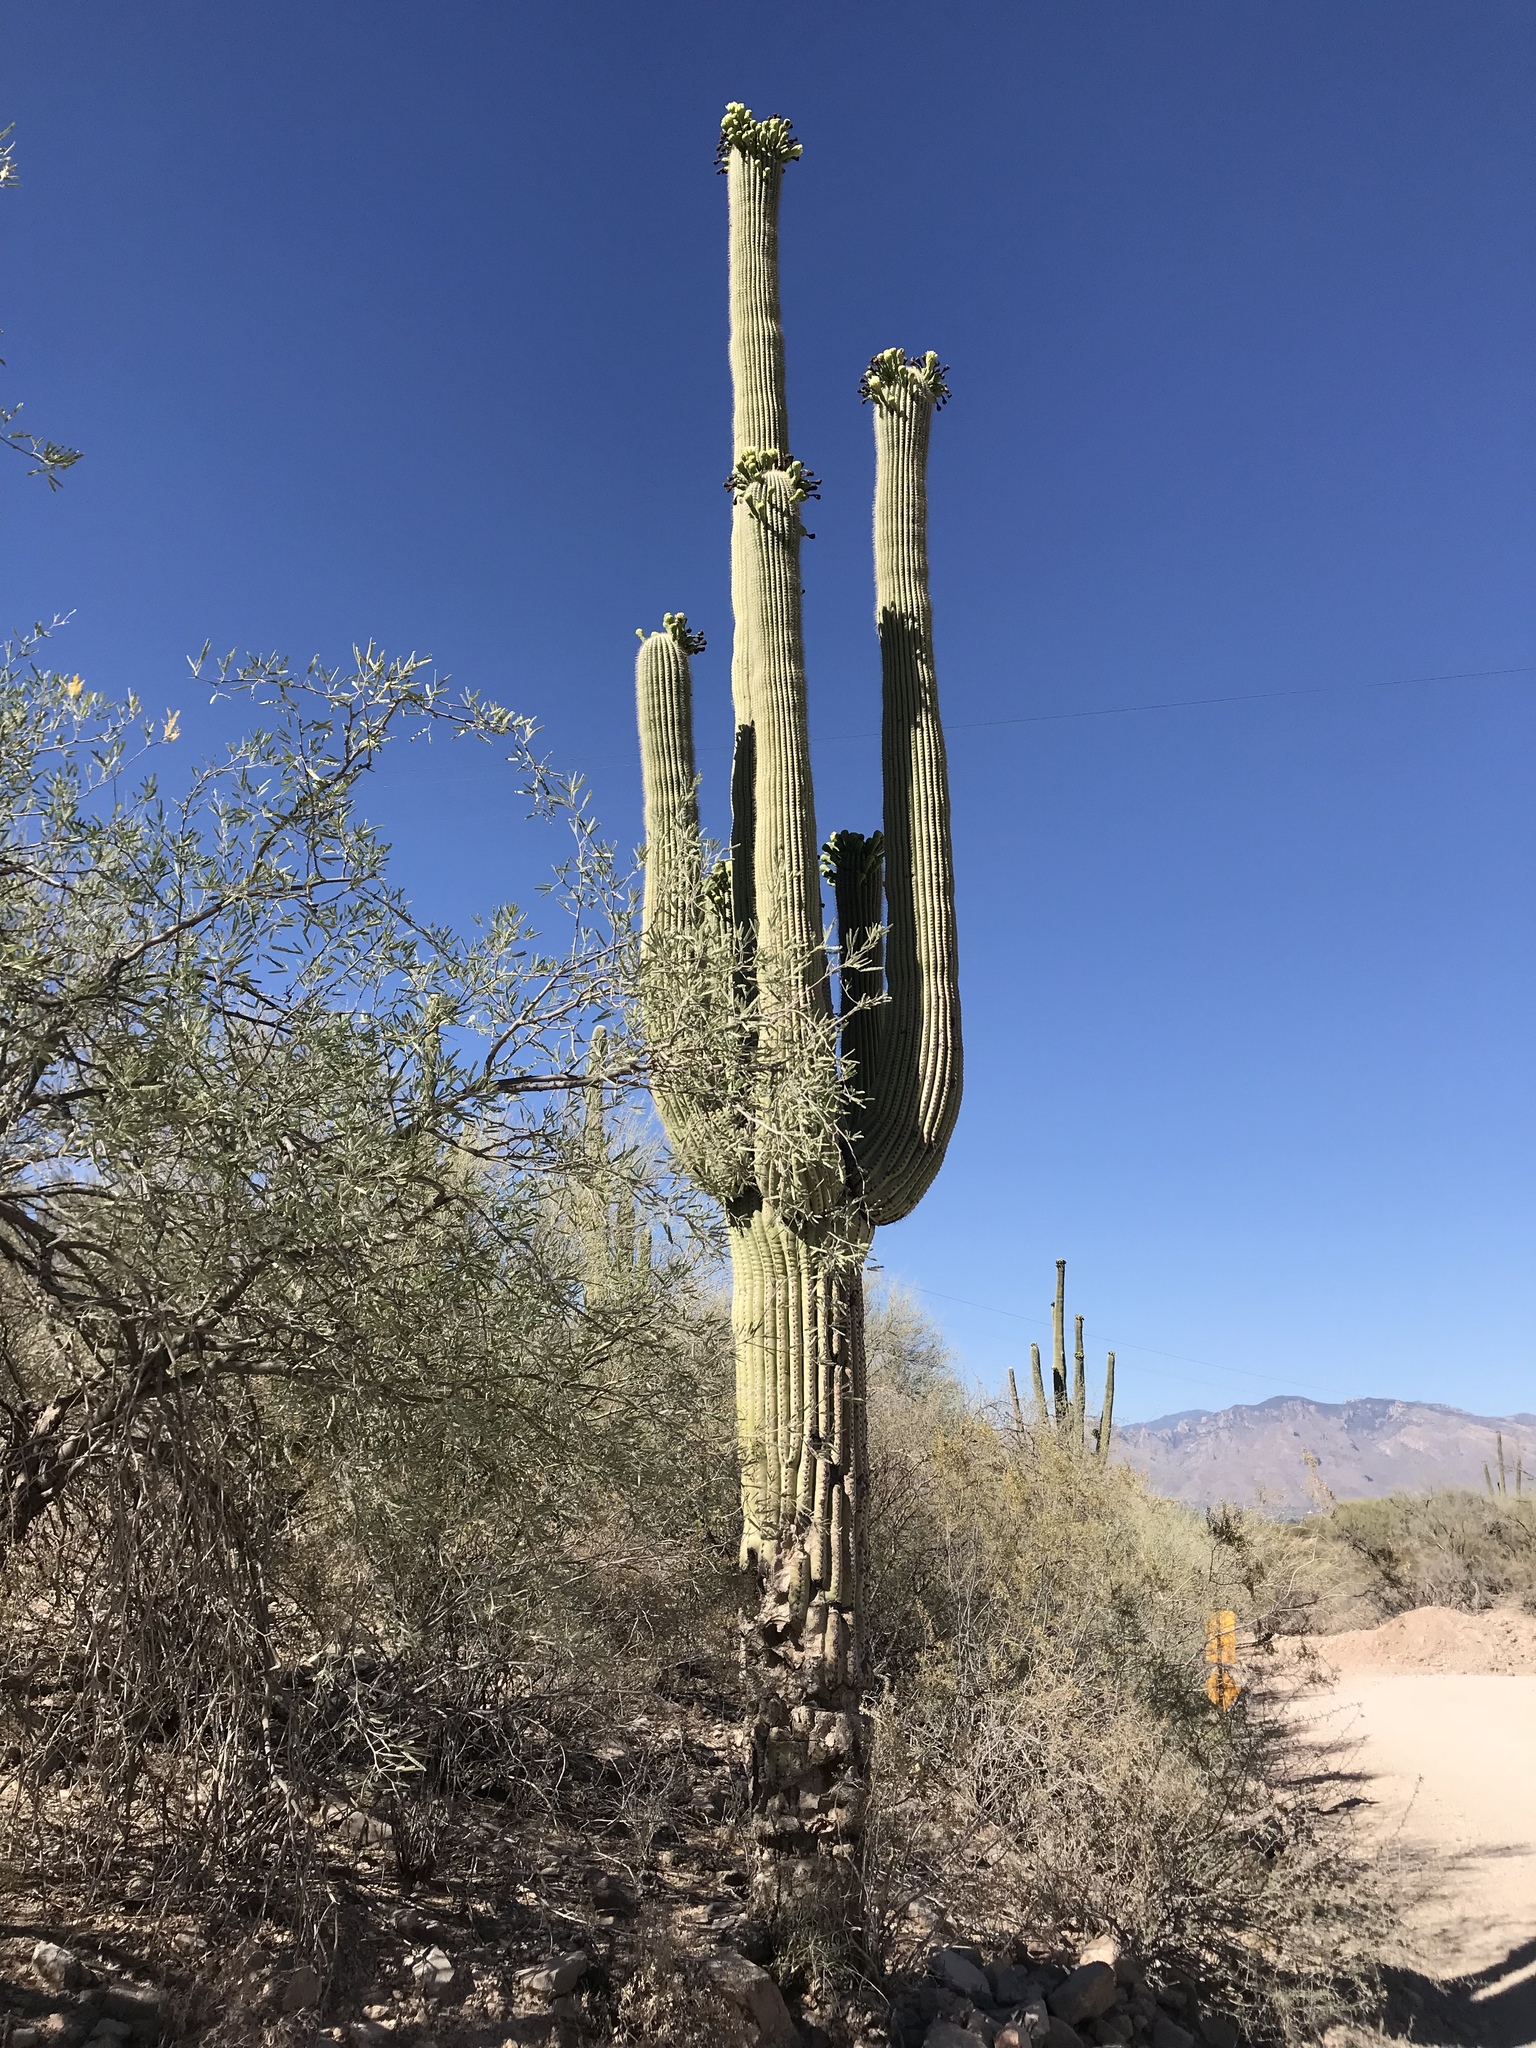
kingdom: Plantae
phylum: Tracheophyta
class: Magnoliopsida
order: Caryophyllales
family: Cactaceae
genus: Carnegiea
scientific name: Carnegiea gigantea
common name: Saguaro
